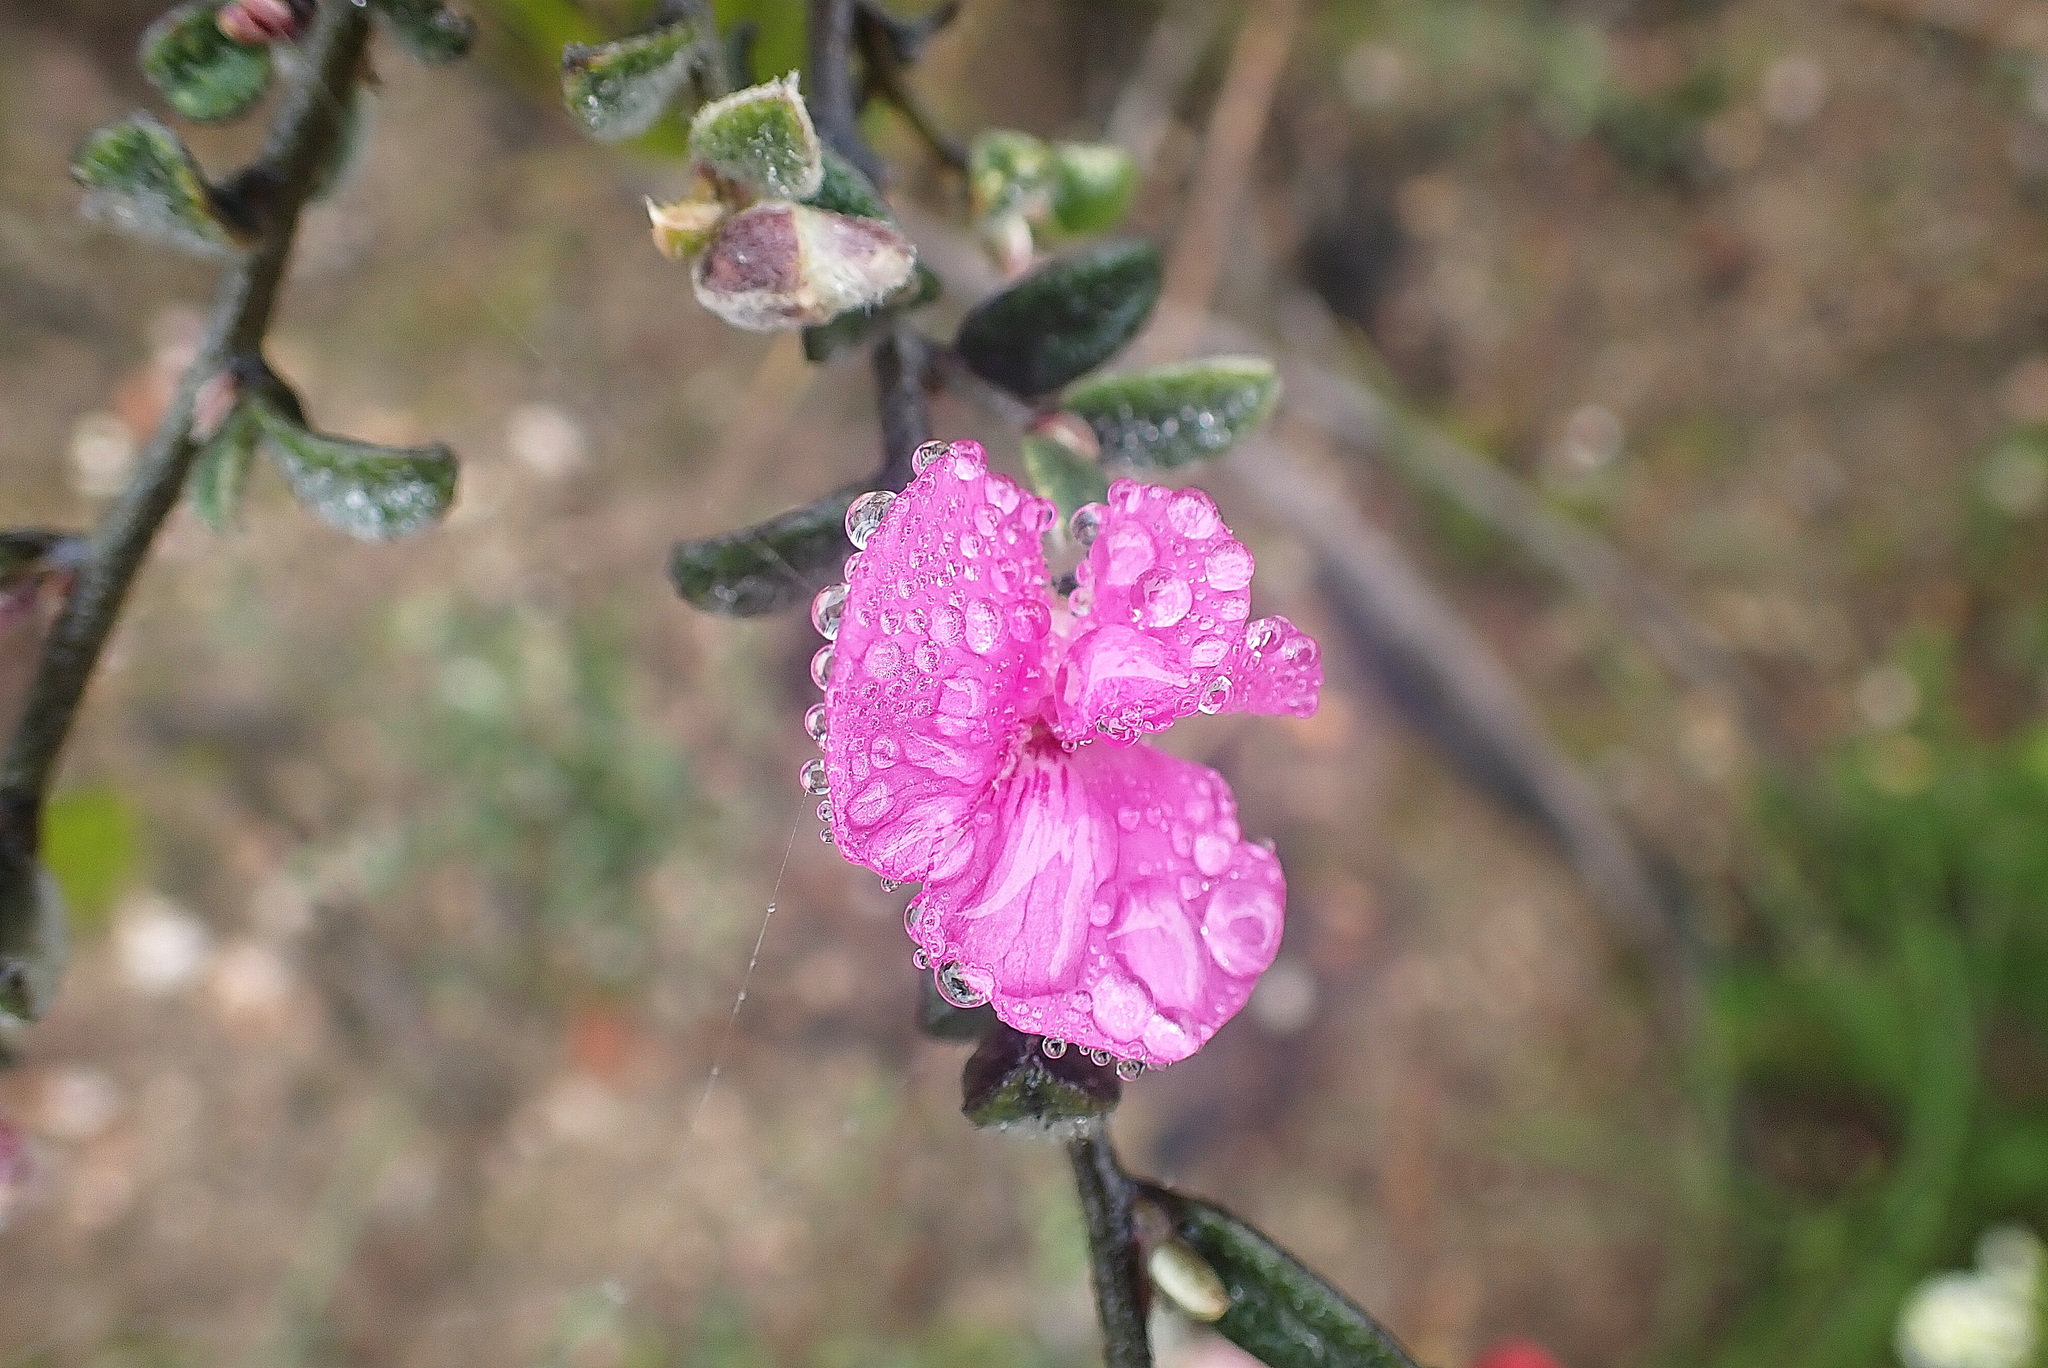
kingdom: Plantae
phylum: Tracheophyta
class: Magnoliopsida
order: Fabales
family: Fabaceae
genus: Podalyria
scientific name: Podalyria burchellii
